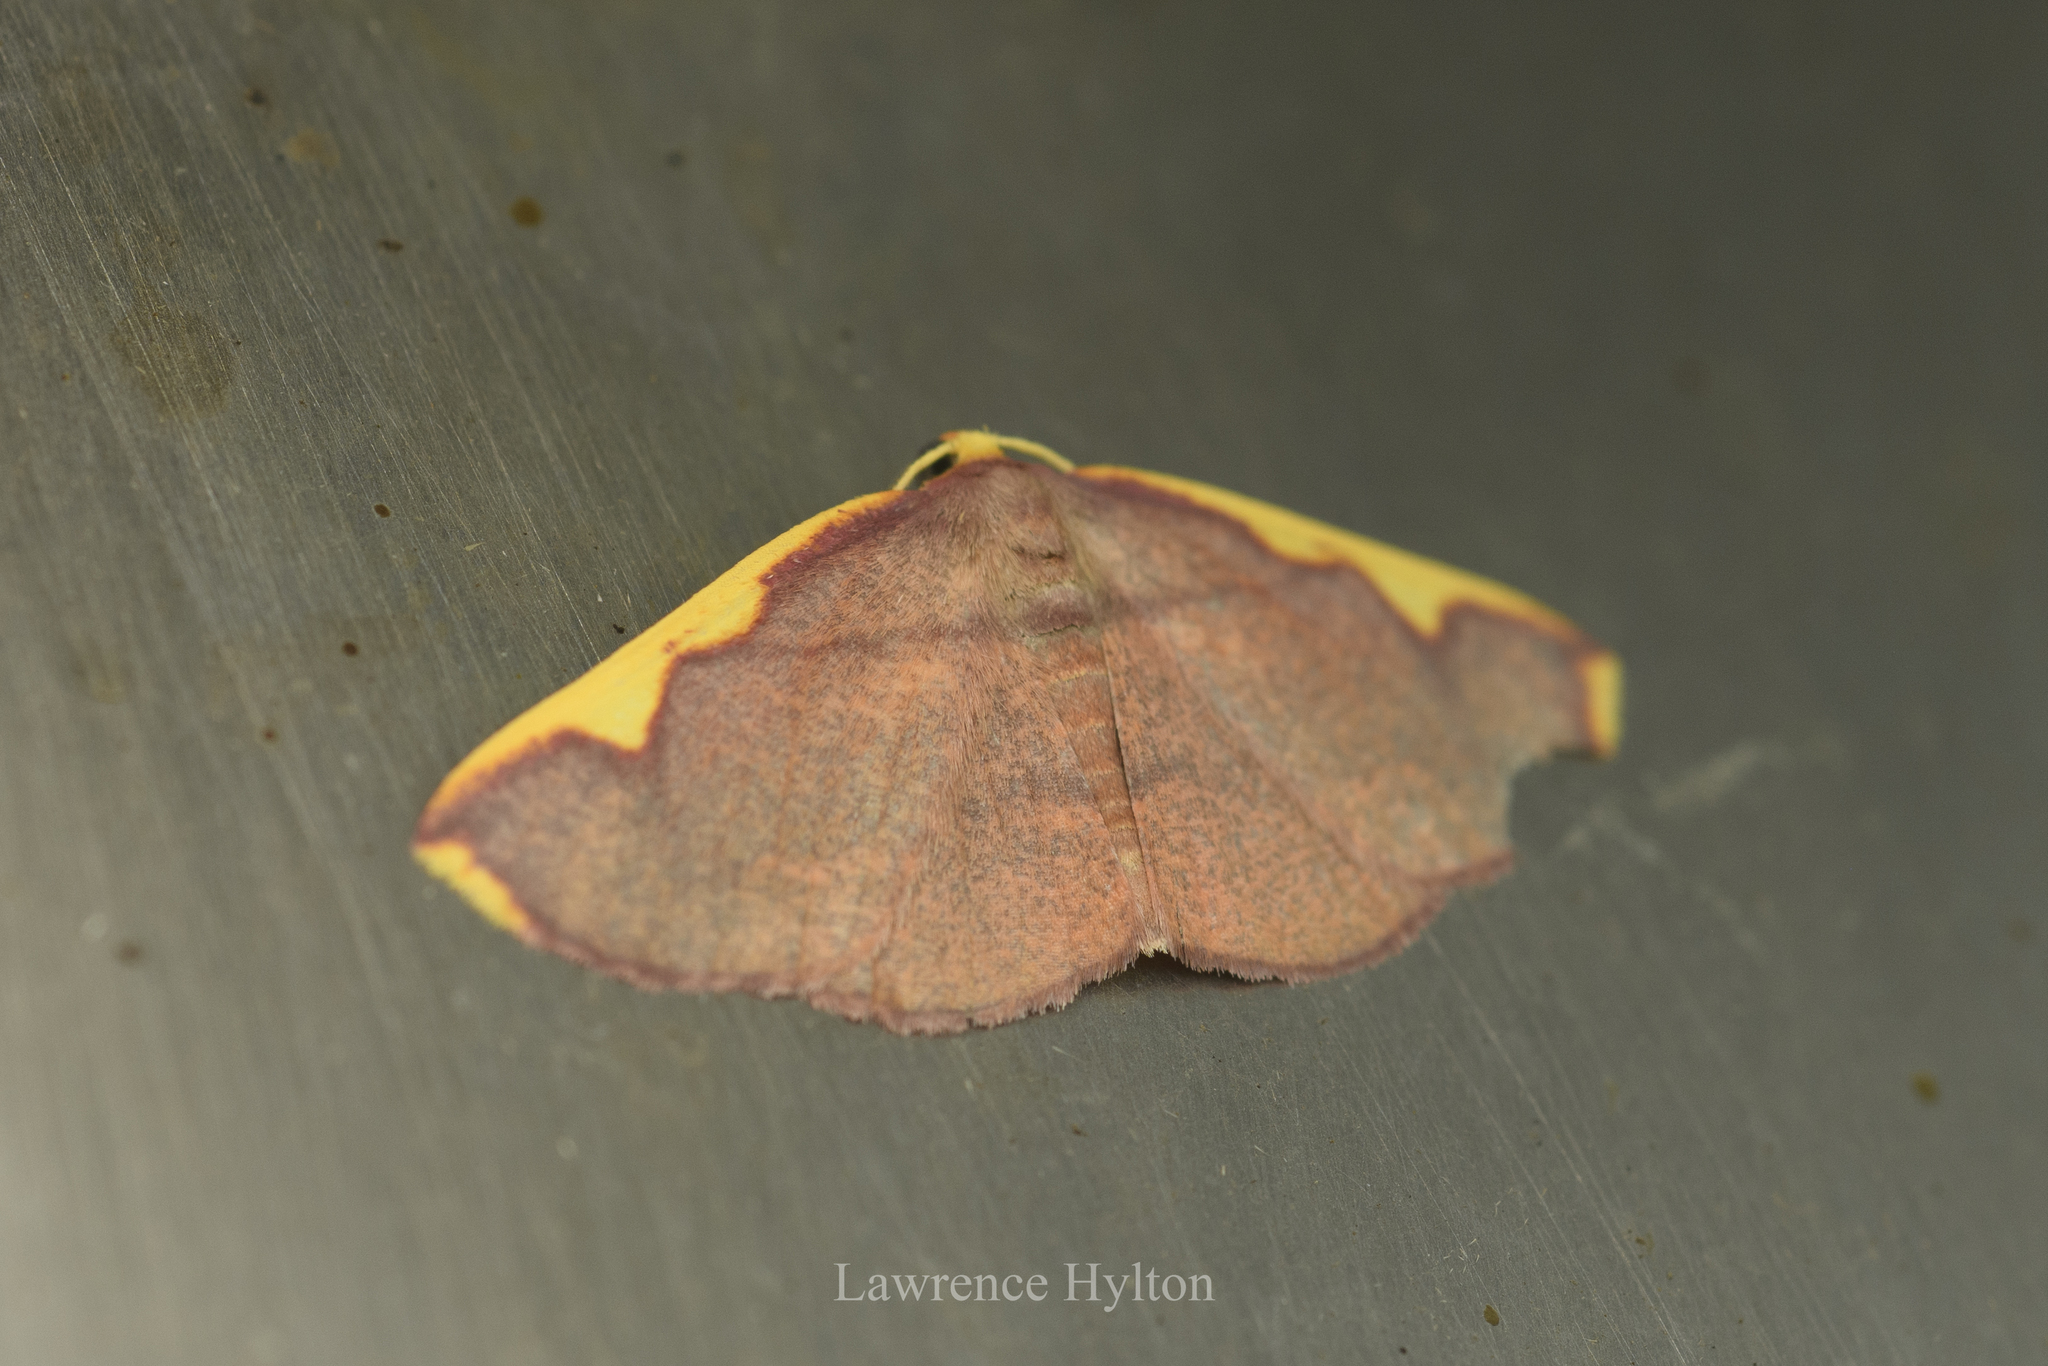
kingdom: Animalia
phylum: Arthropoda
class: Insecta
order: Lepidoptera
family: Geometridae
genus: Nothomiza
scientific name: Nothomiza flavicosta
